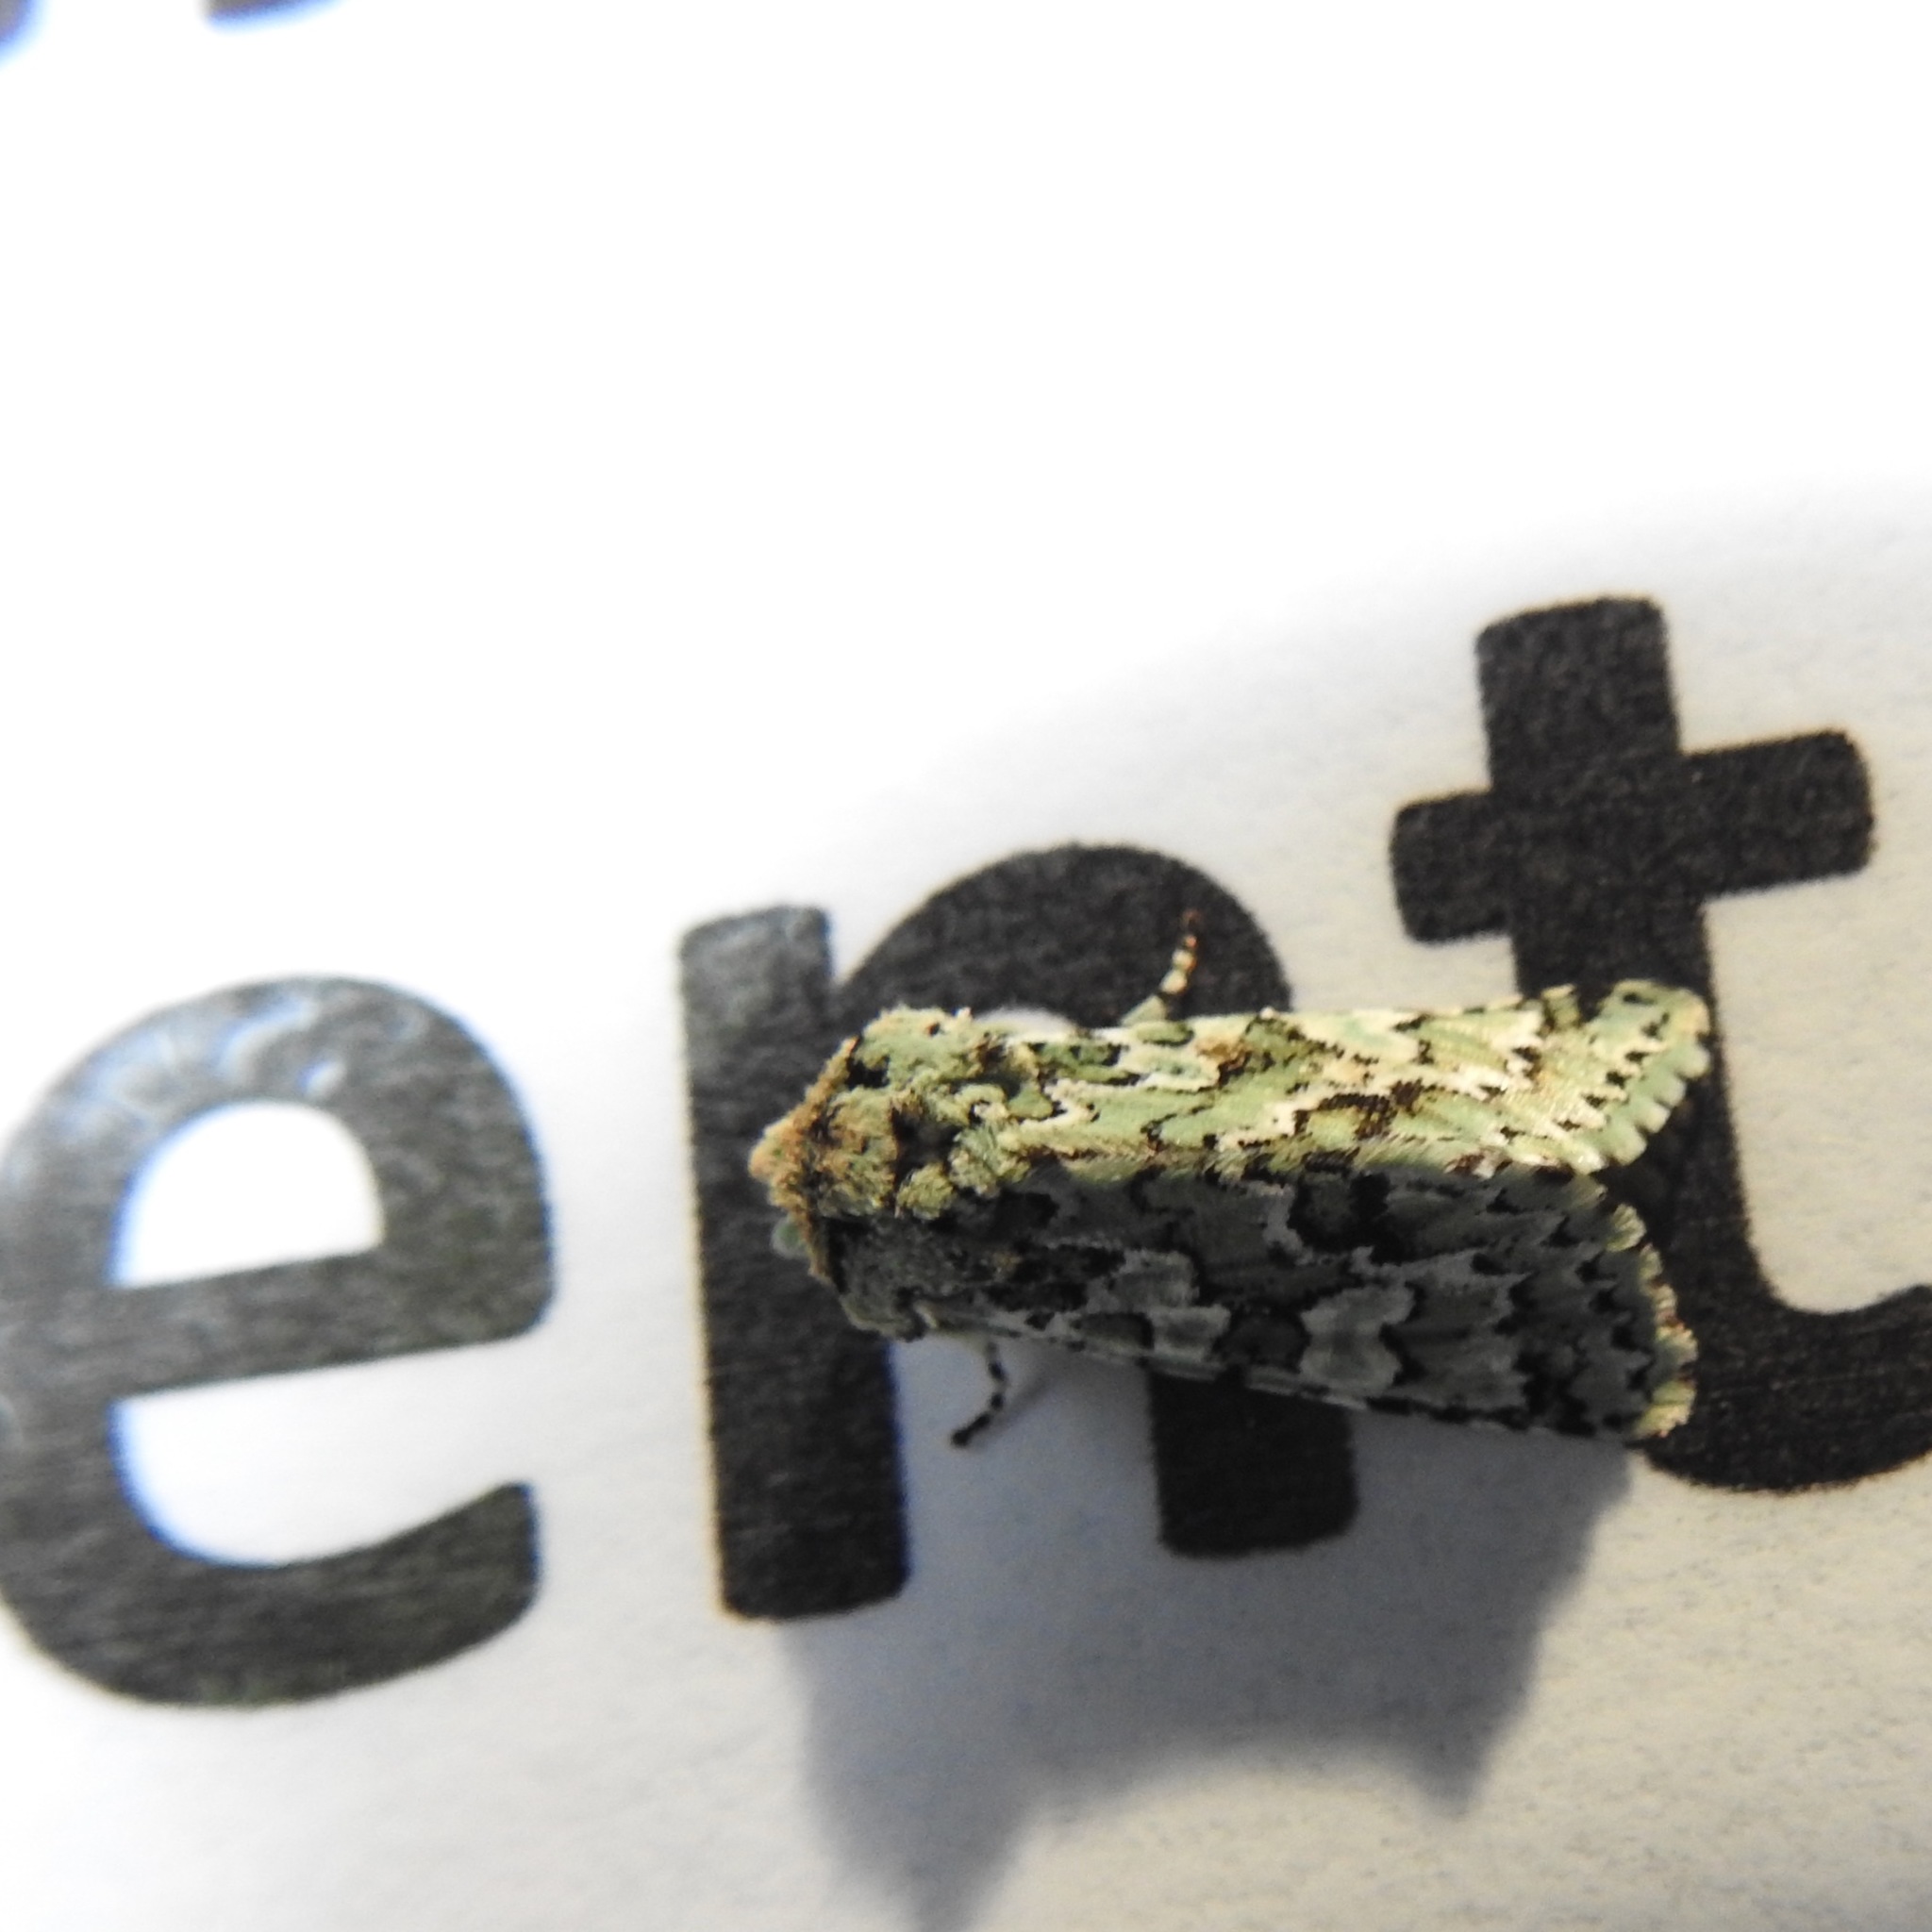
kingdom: Animalia
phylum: Arthropoda
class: Insecta
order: Lepidoptera
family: Noctuidae
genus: Feralia
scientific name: Feralia februalis
